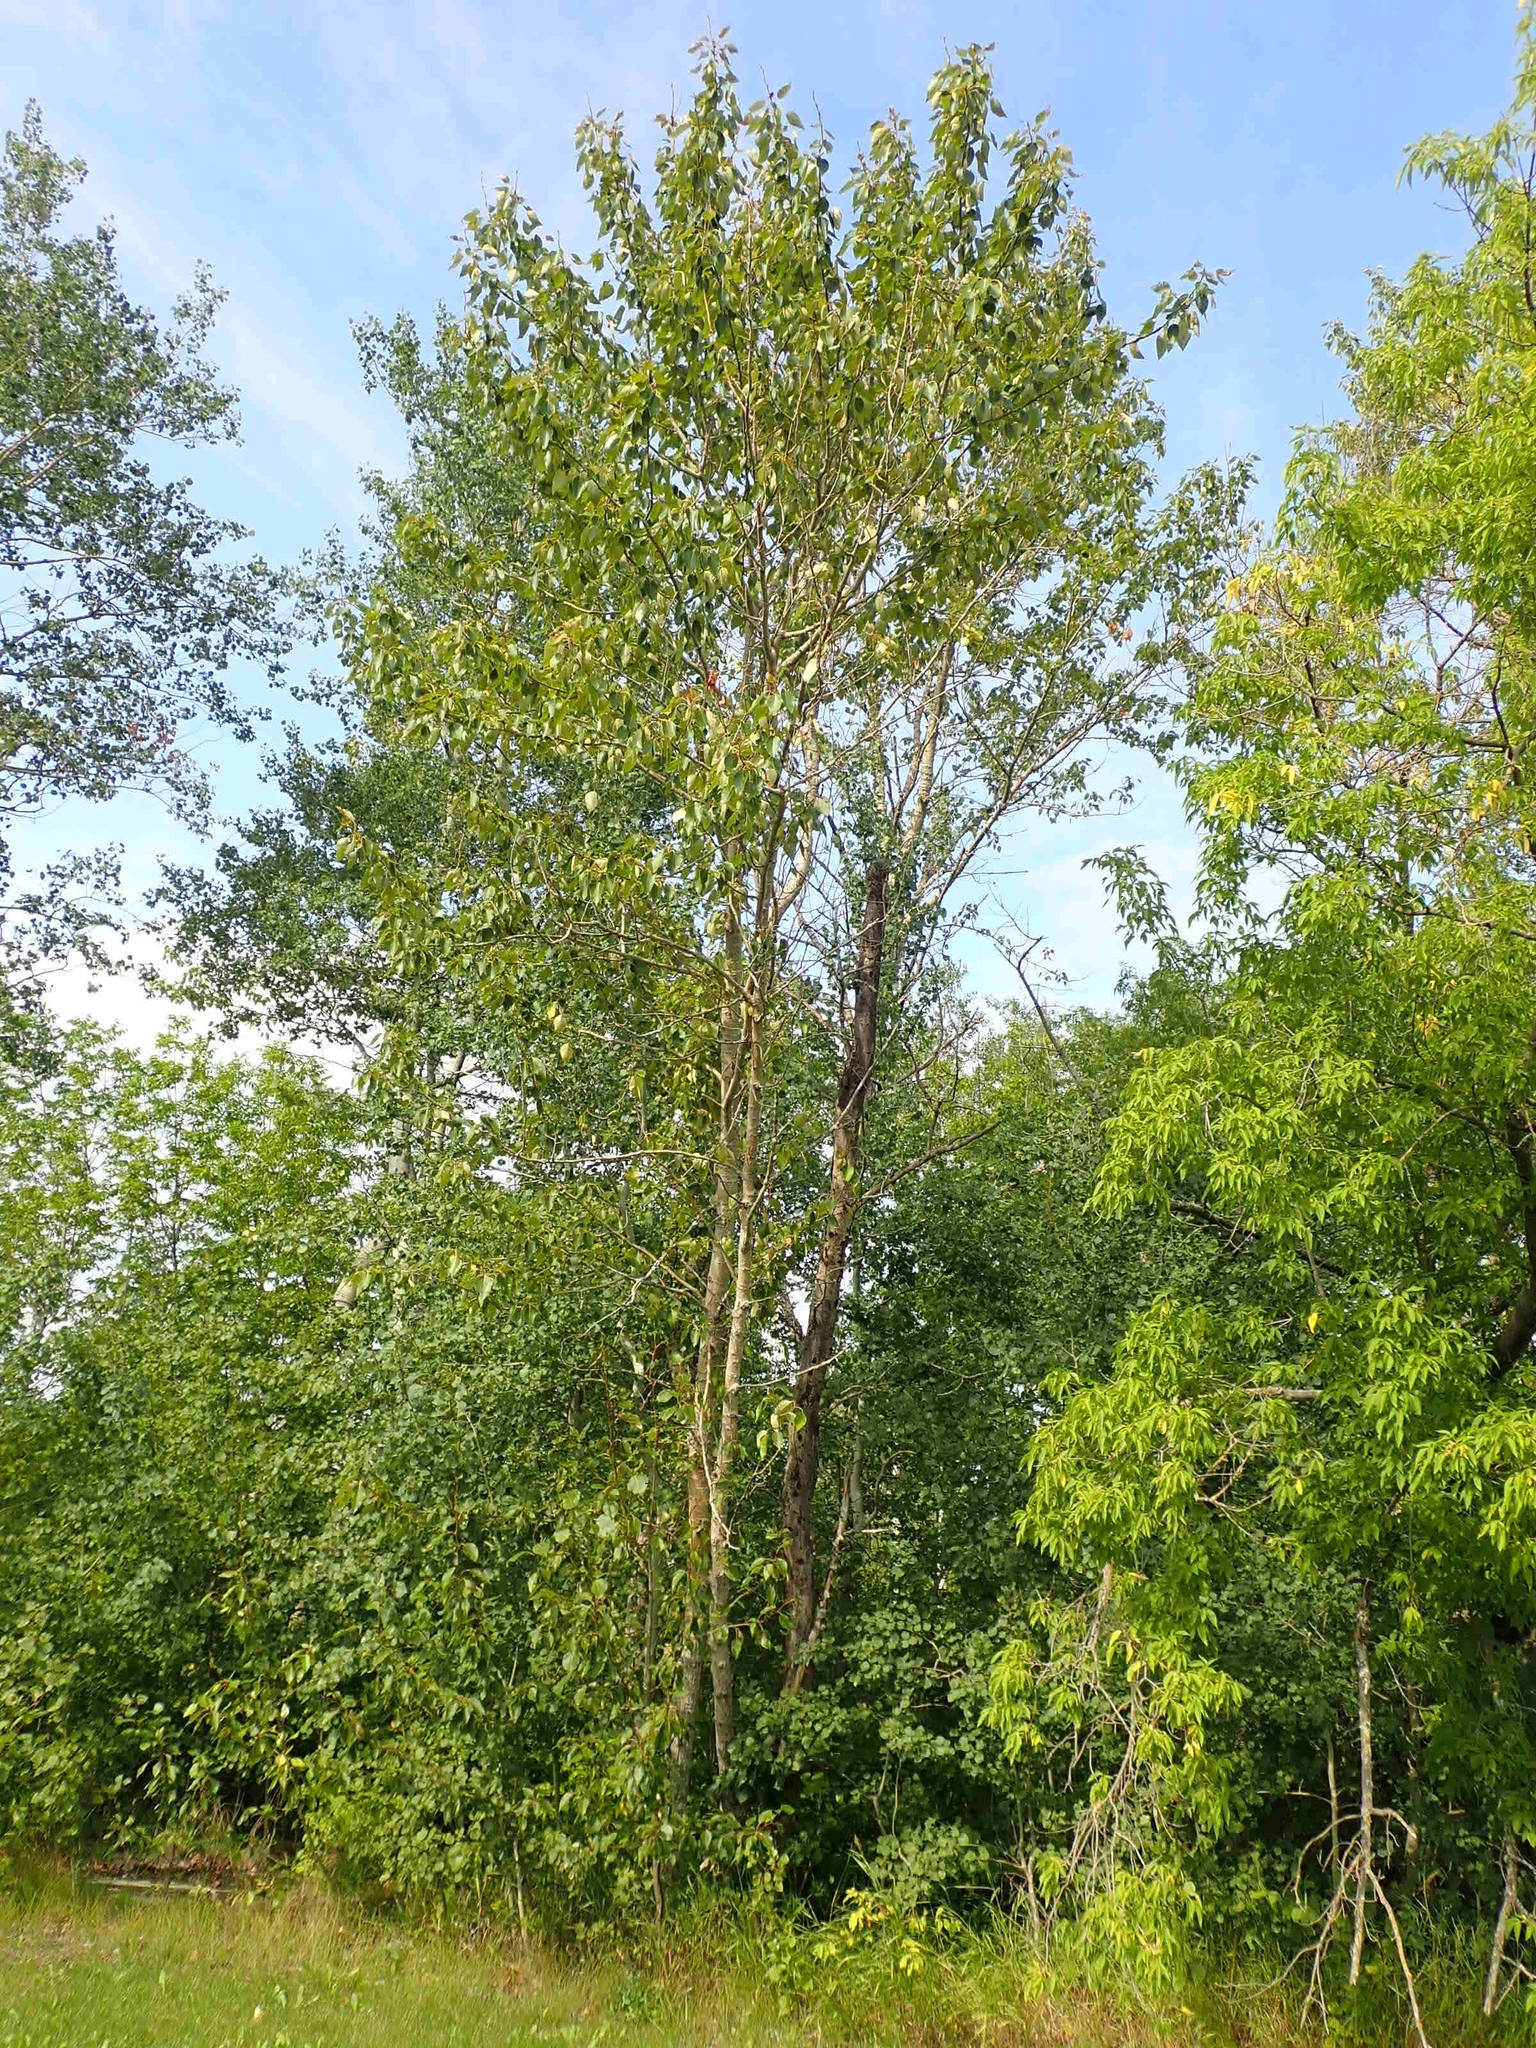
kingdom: Plantae
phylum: Tracheophyta
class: Magnoliopsida
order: Malpighiales
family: Salicaceae
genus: Populus
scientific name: Populus balsamifera
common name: Balsam poplar
